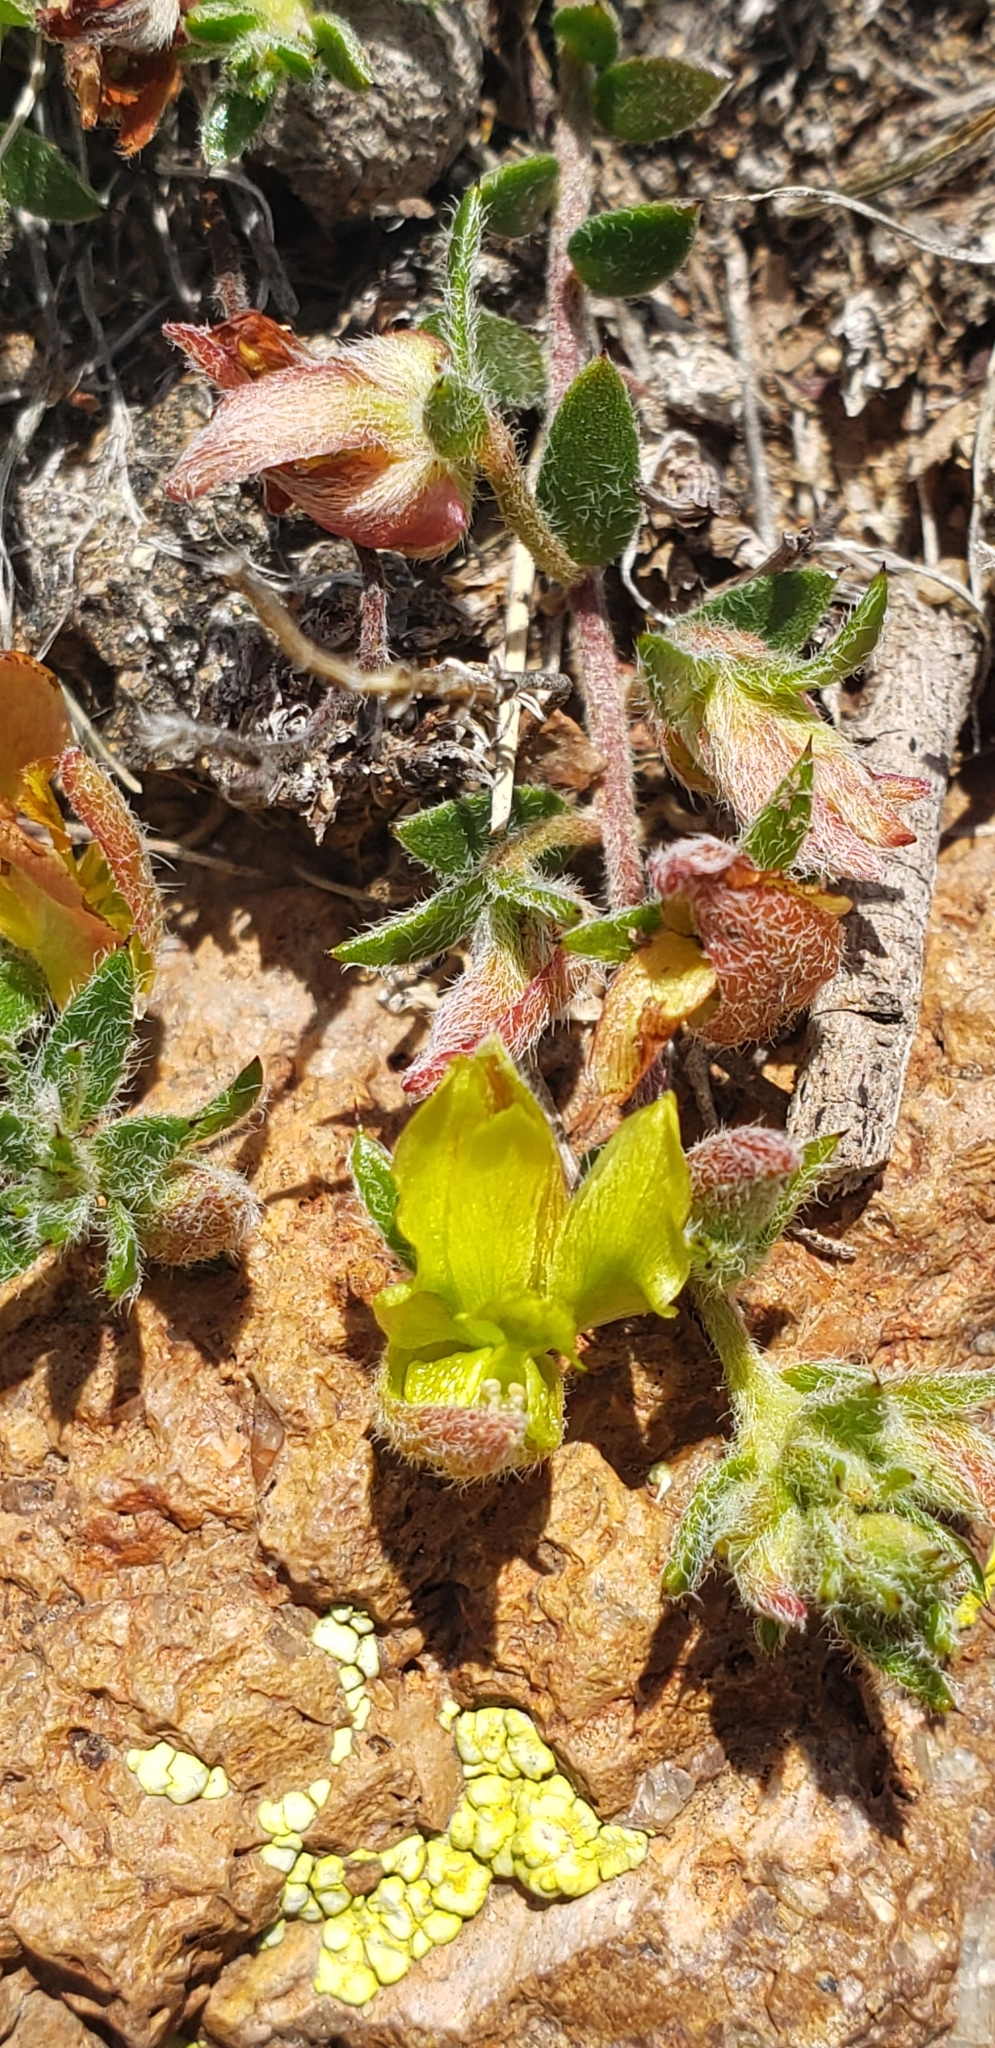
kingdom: Plantae
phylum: Tracheophyta
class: Magnoliopsida
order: Zygophyllales
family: Krameriaceae
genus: Krameria
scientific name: Krameria pauciflora
